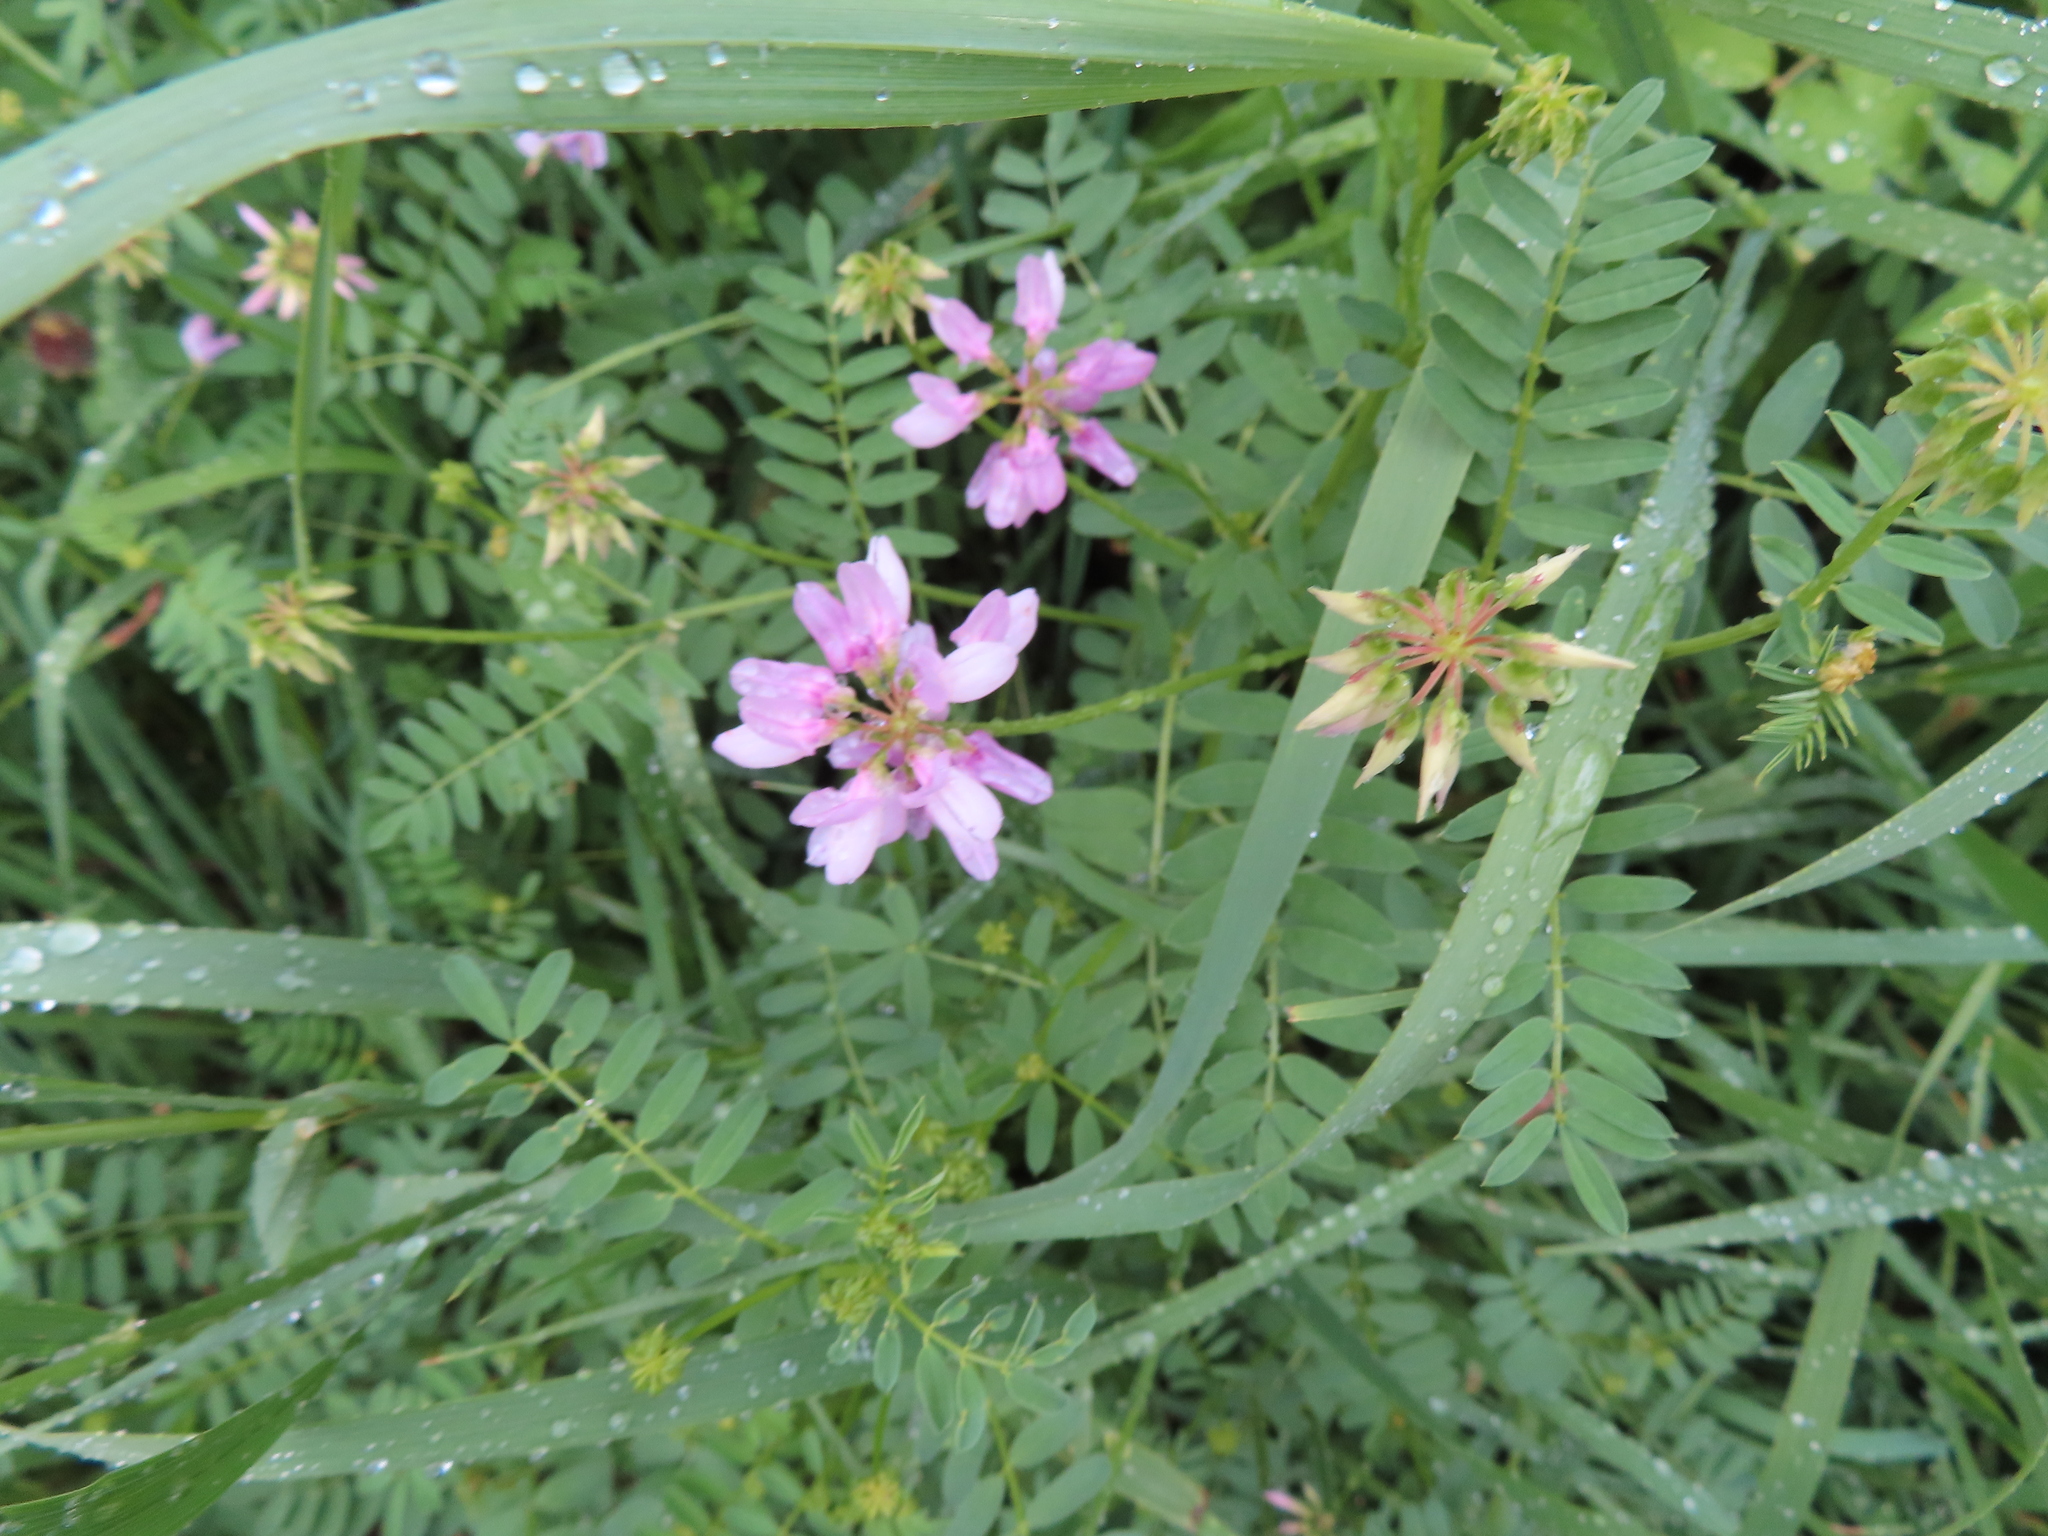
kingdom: Plantae
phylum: Tracheophyta
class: Magnoliopsida
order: Fabales
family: Fabaceae
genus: Coronilla
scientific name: Coronilla varia
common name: Crownvetch
